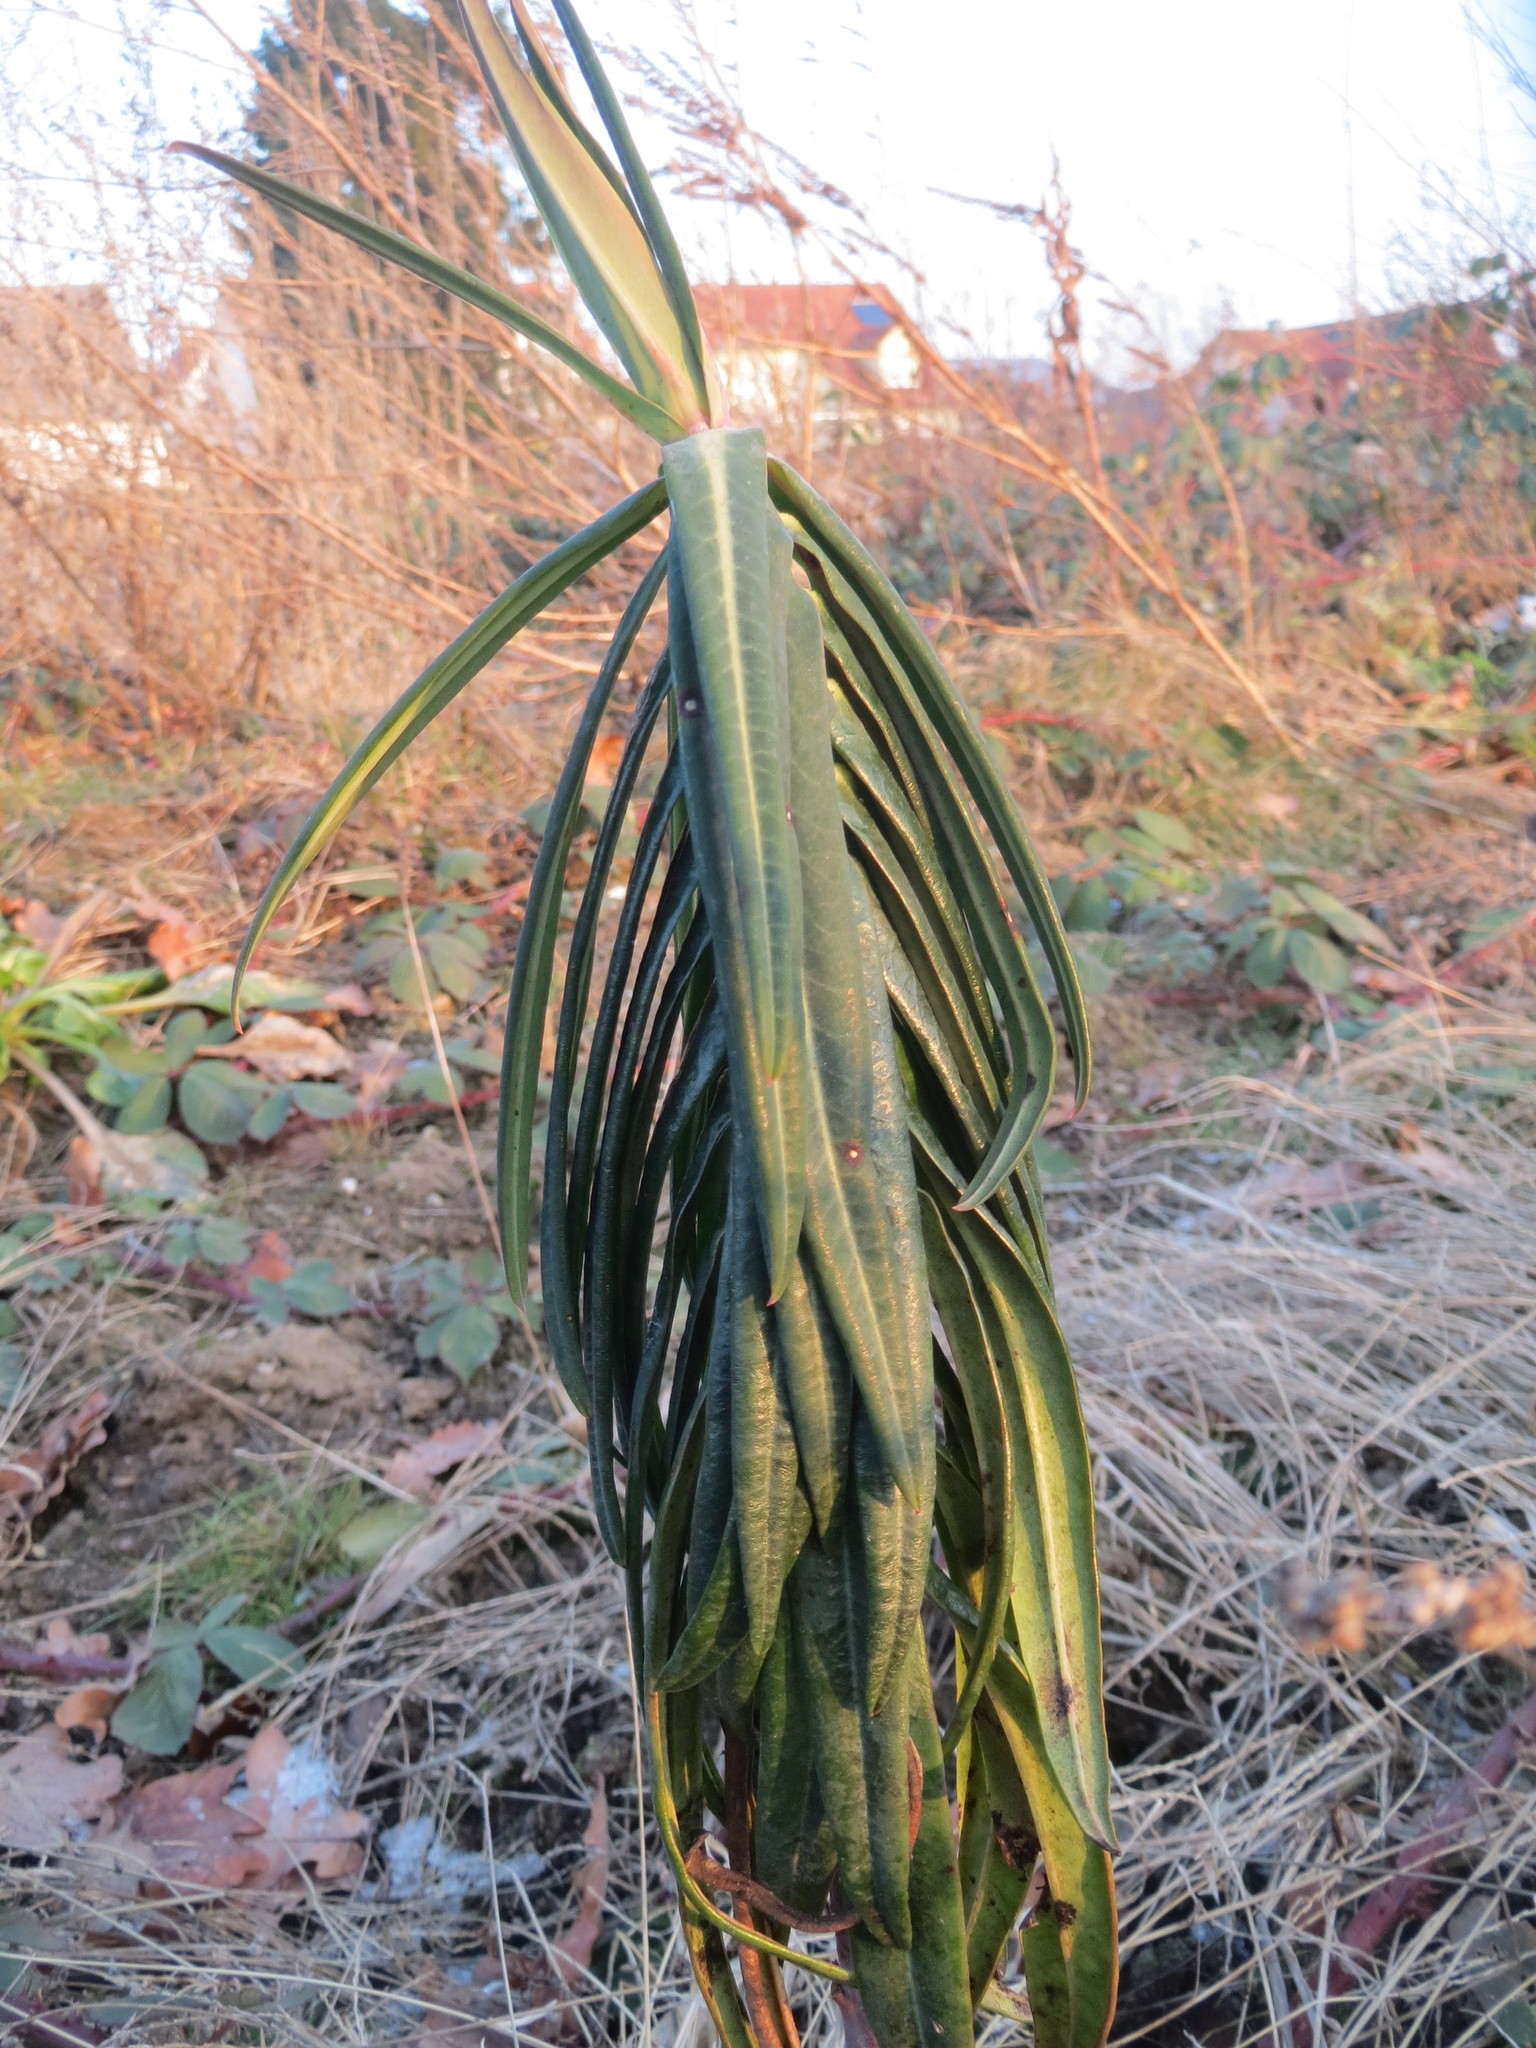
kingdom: Plantae
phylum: Tracheophyta
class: Magnoliopsida
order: Malpighiales
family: Euphorbiaceae
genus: Euphorbia
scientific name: Euphorbia lathyris
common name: Caper spurge
